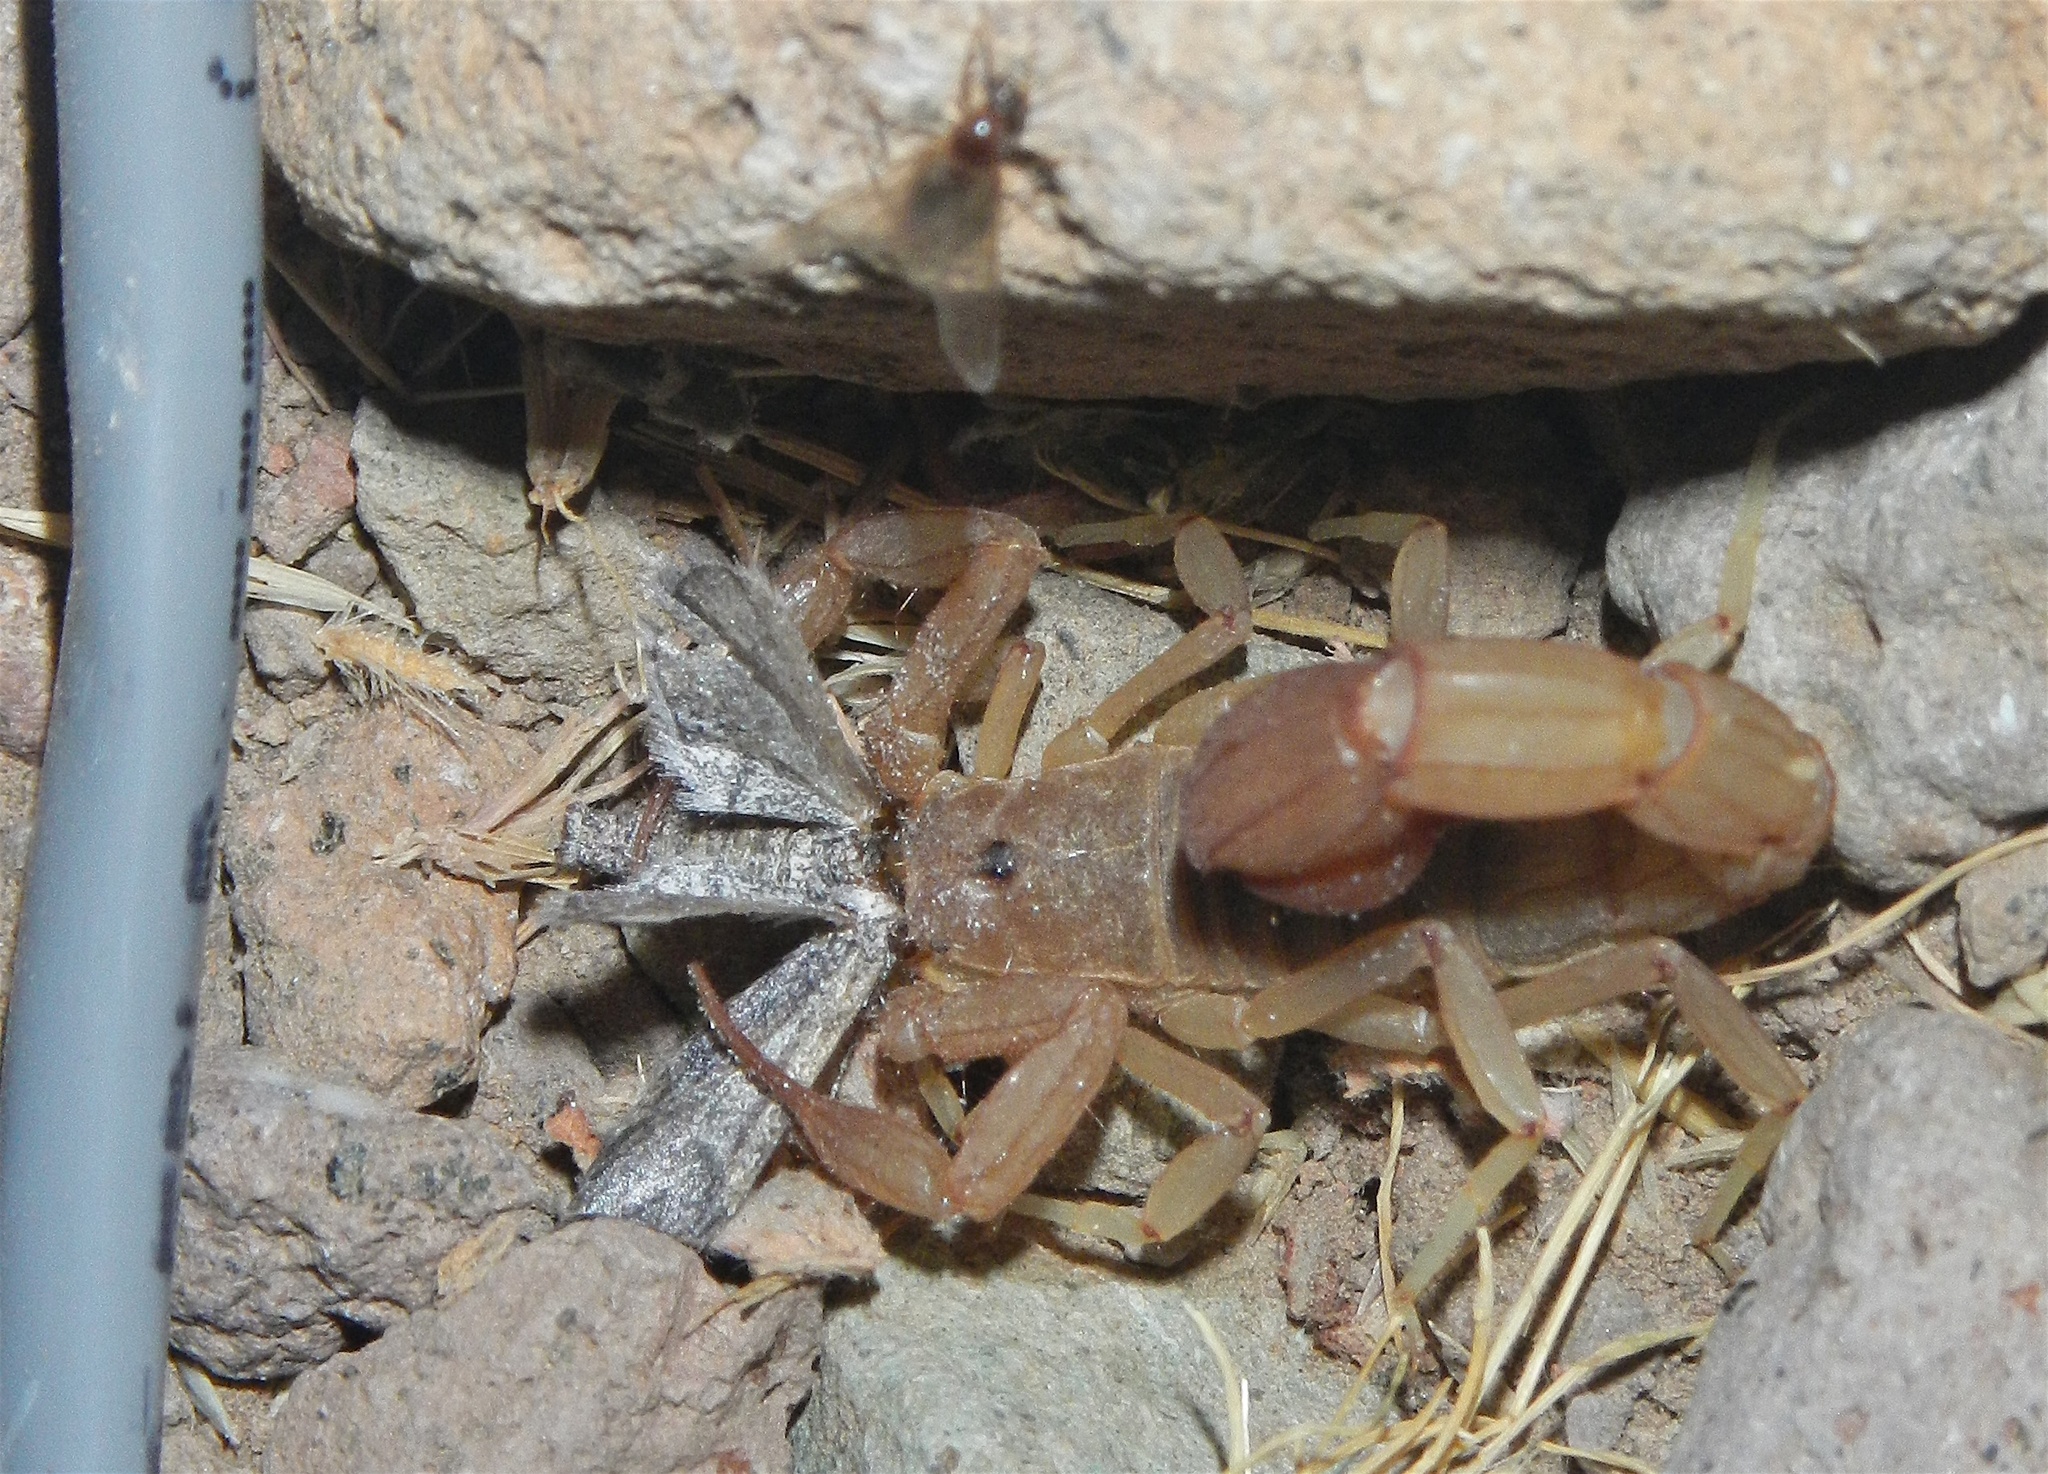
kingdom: Animalia
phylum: Arthropoda
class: Arachnida
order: Scorpiones
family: Vaejovidae
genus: Paravaejovis
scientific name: Paravaejovis confusus
